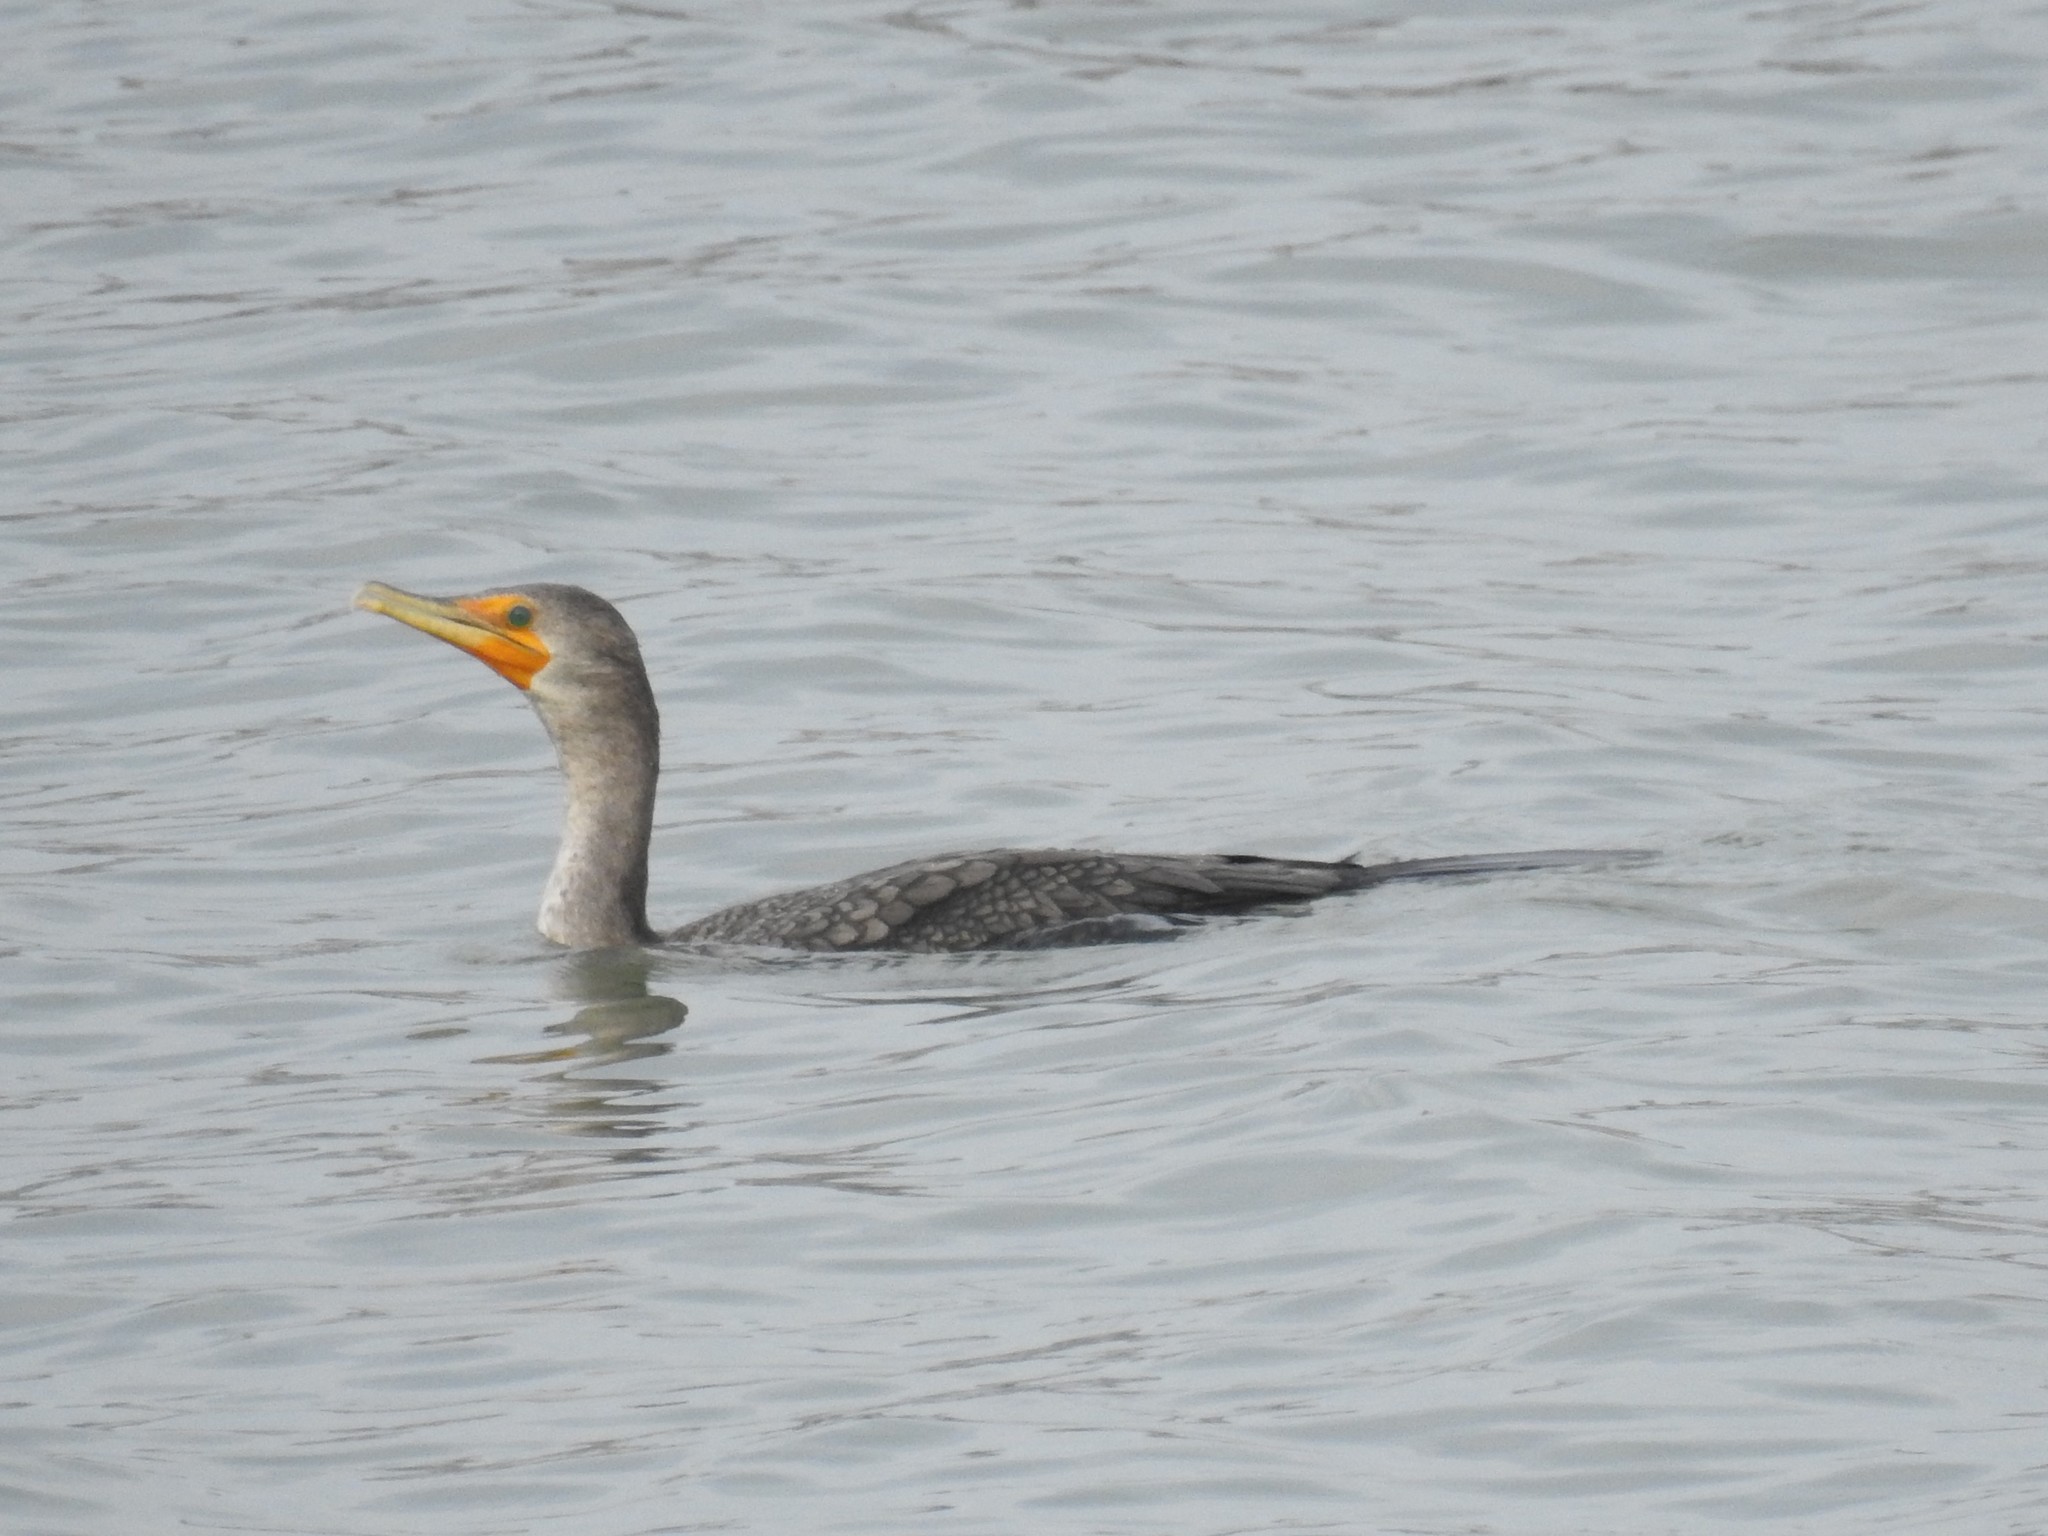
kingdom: Animalia
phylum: Chordata
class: Aves
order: Suliformes
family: Phalacrocoracidae
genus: Phalacrocorax
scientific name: Phalacrocorax auritus
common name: Double-crested cormorant
